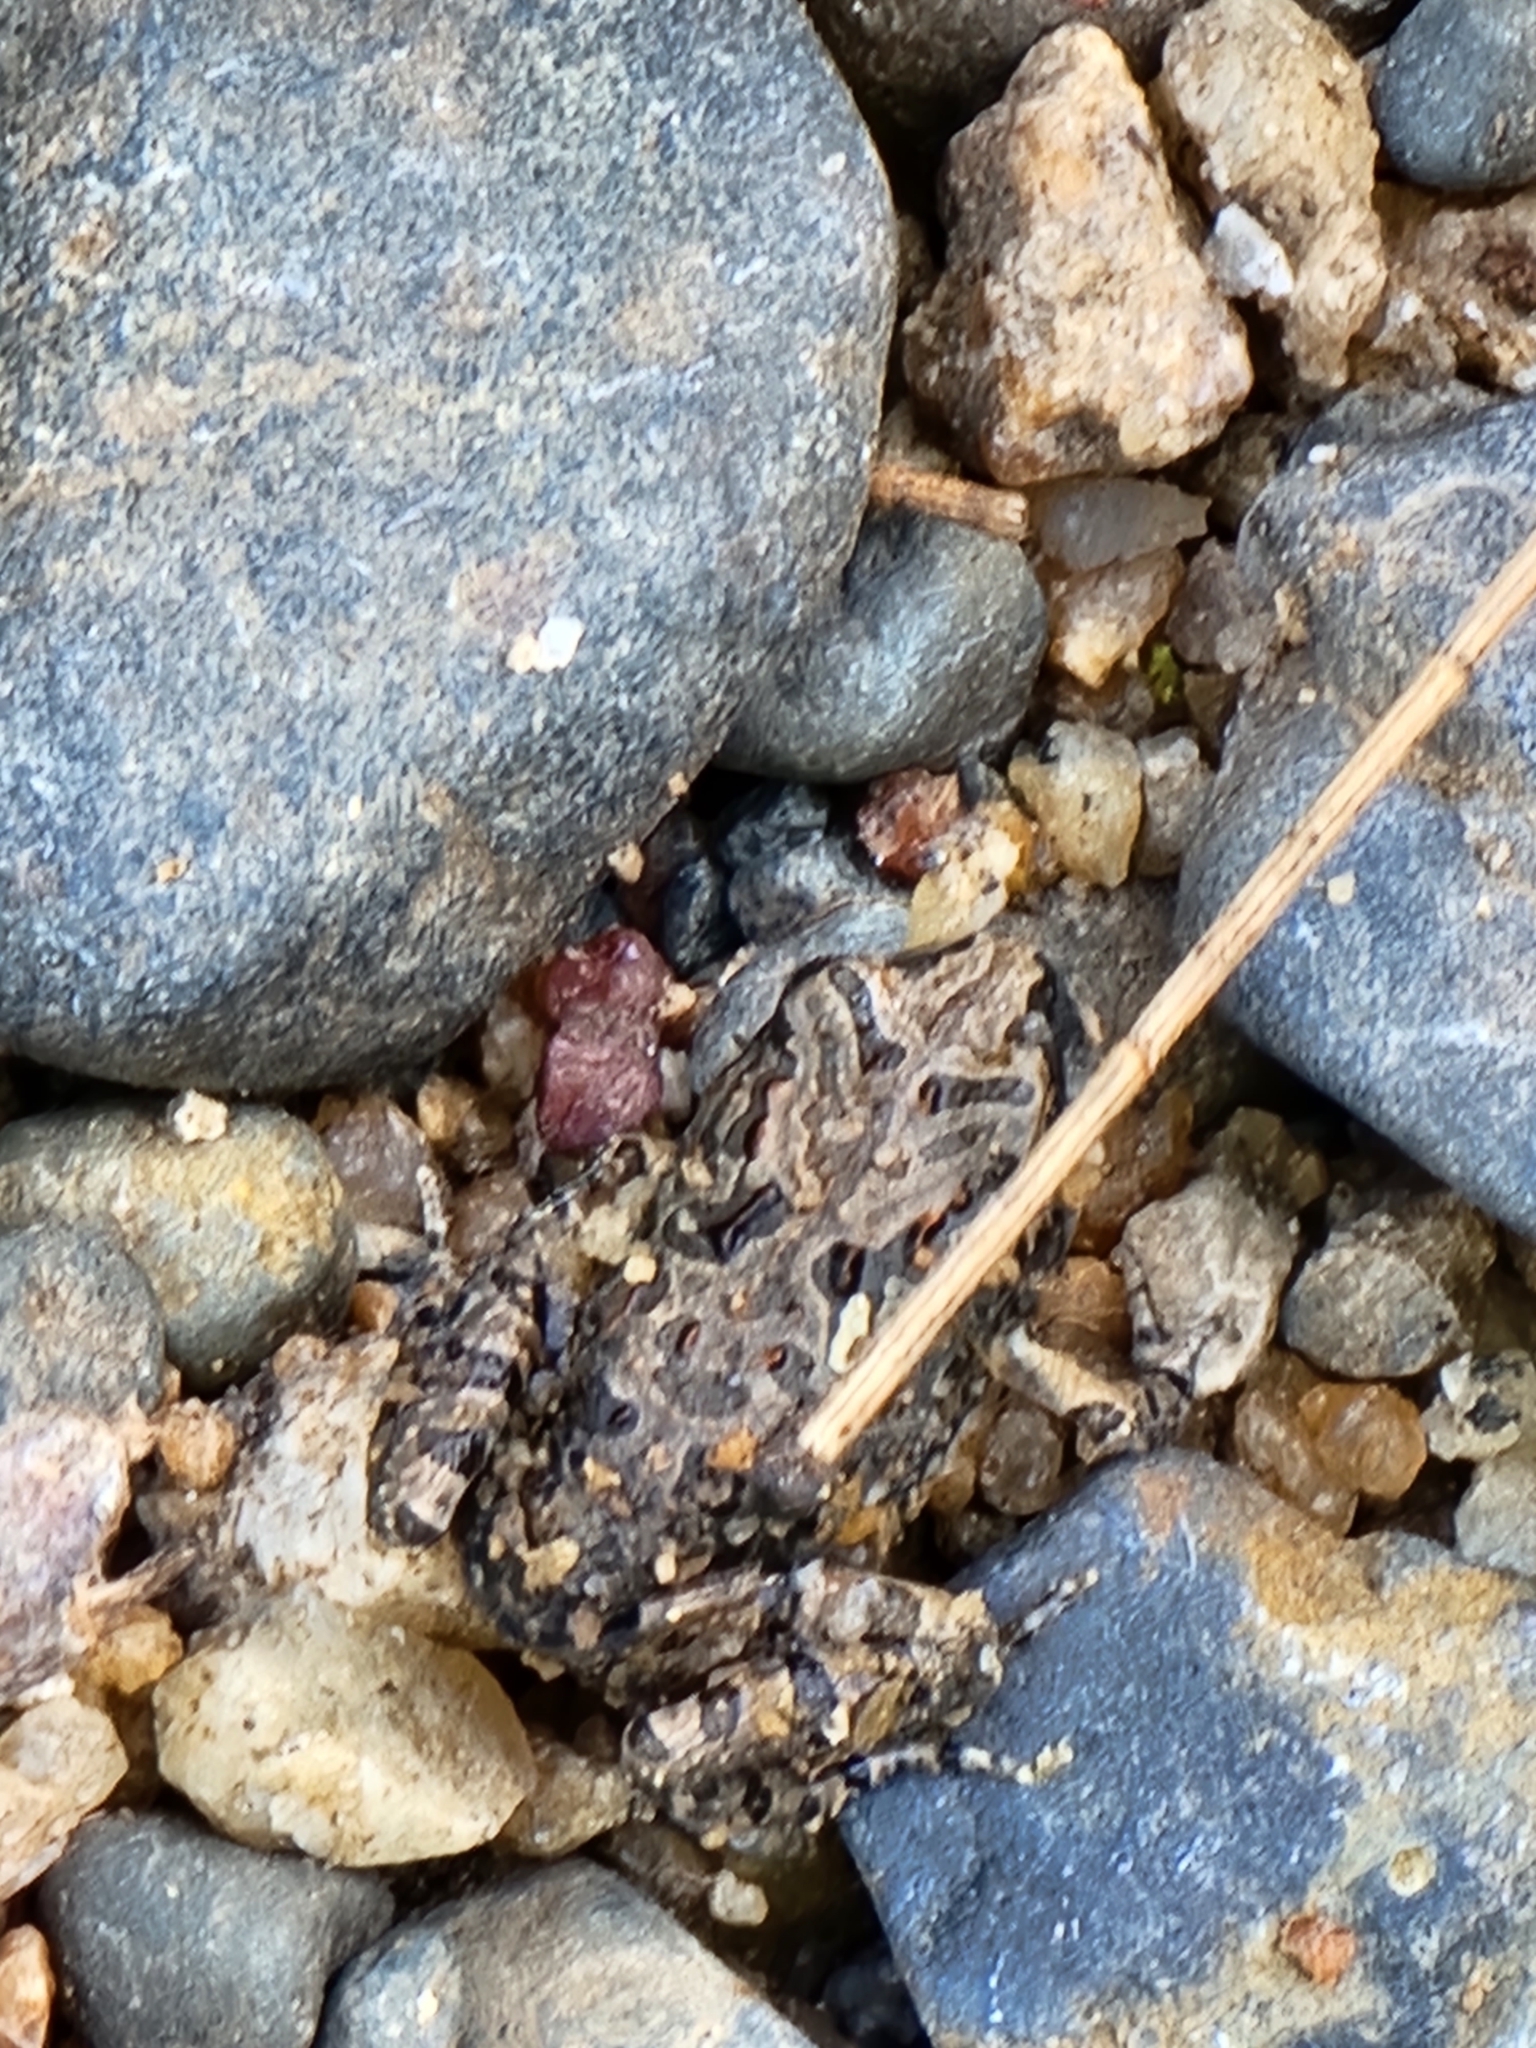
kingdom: Animalia
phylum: Chordata
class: Amphibia
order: Anura
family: Limnodynastidae
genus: Platyplectrum
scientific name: Platyplectrum ornatum
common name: Ornate burrowing frog
